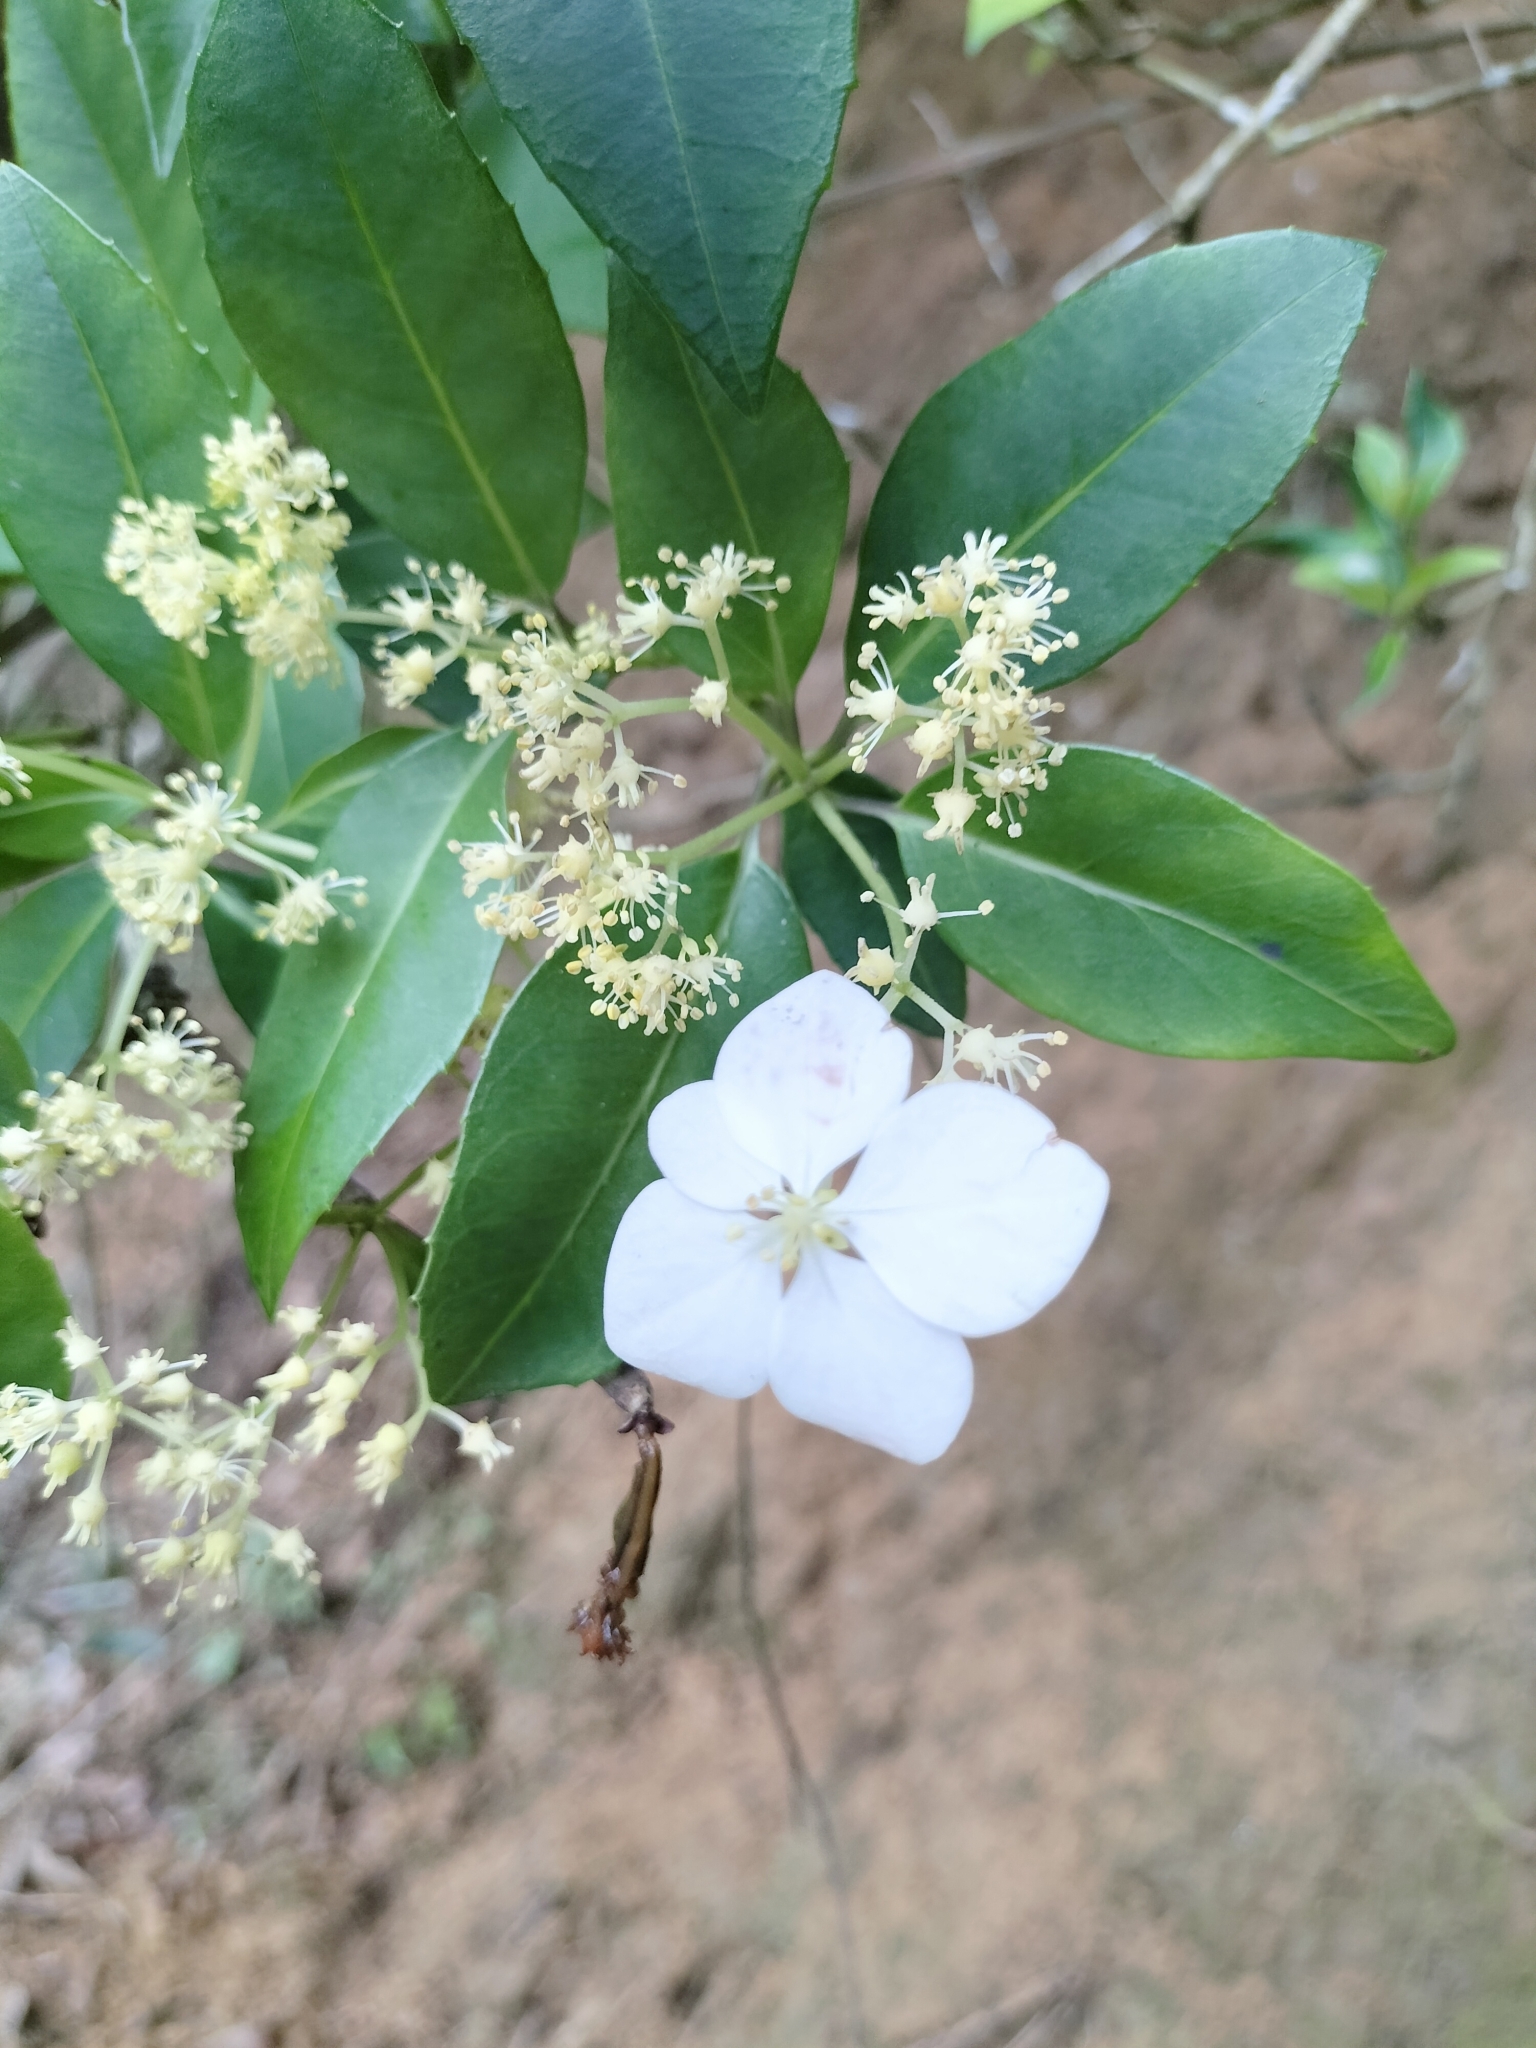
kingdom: Plantae
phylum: Tracheophyta
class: Magnoliopsida
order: Cornales
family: Hydrangeaceae
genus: Hydrangea
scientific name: Hydrangea chinensis
